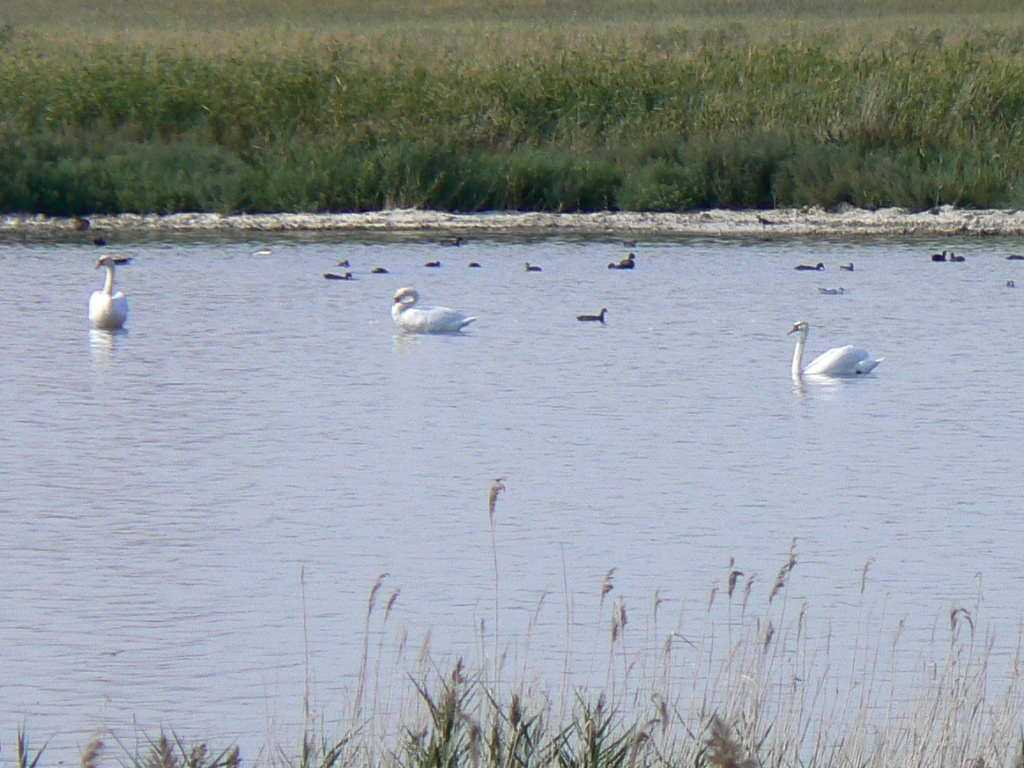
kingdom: Animalia
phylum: Chordata
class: Aves
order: Anseriformes
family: Anatidae
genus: Cygnus
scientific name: Cygnus olor
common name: Mute swan
